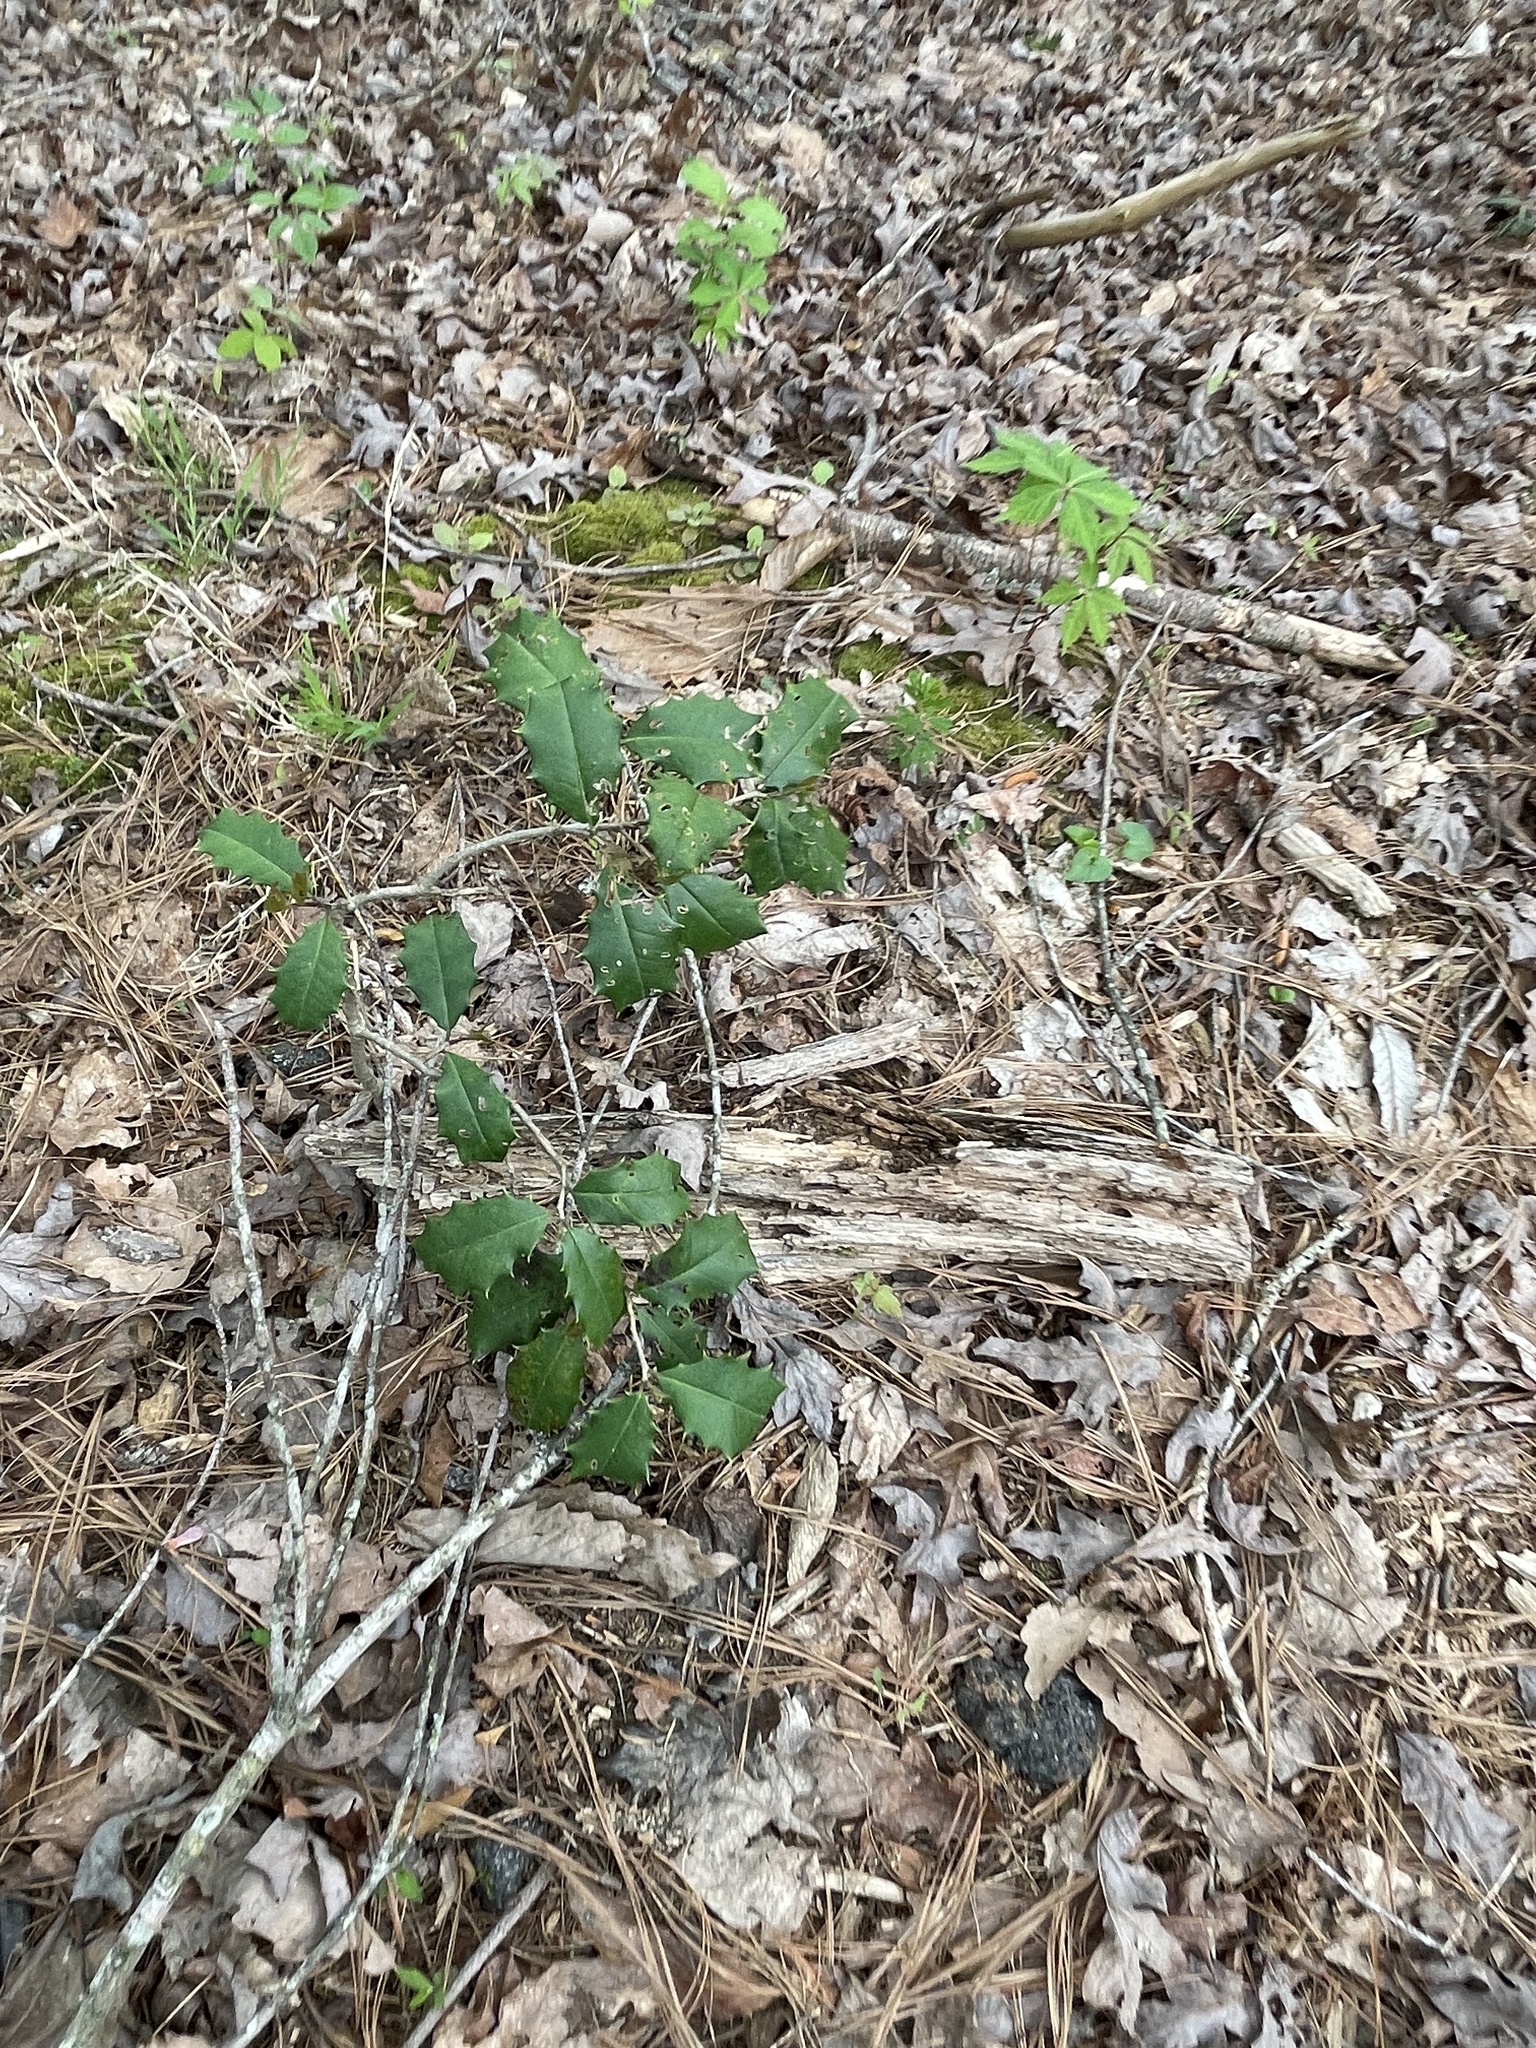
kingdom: Plantae
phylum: Tracheophyta
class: Magnoliopsida
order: Aquifoliales
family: Aquifoliaceae
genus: Ilex
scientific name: Ilex opaca
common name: American holly
